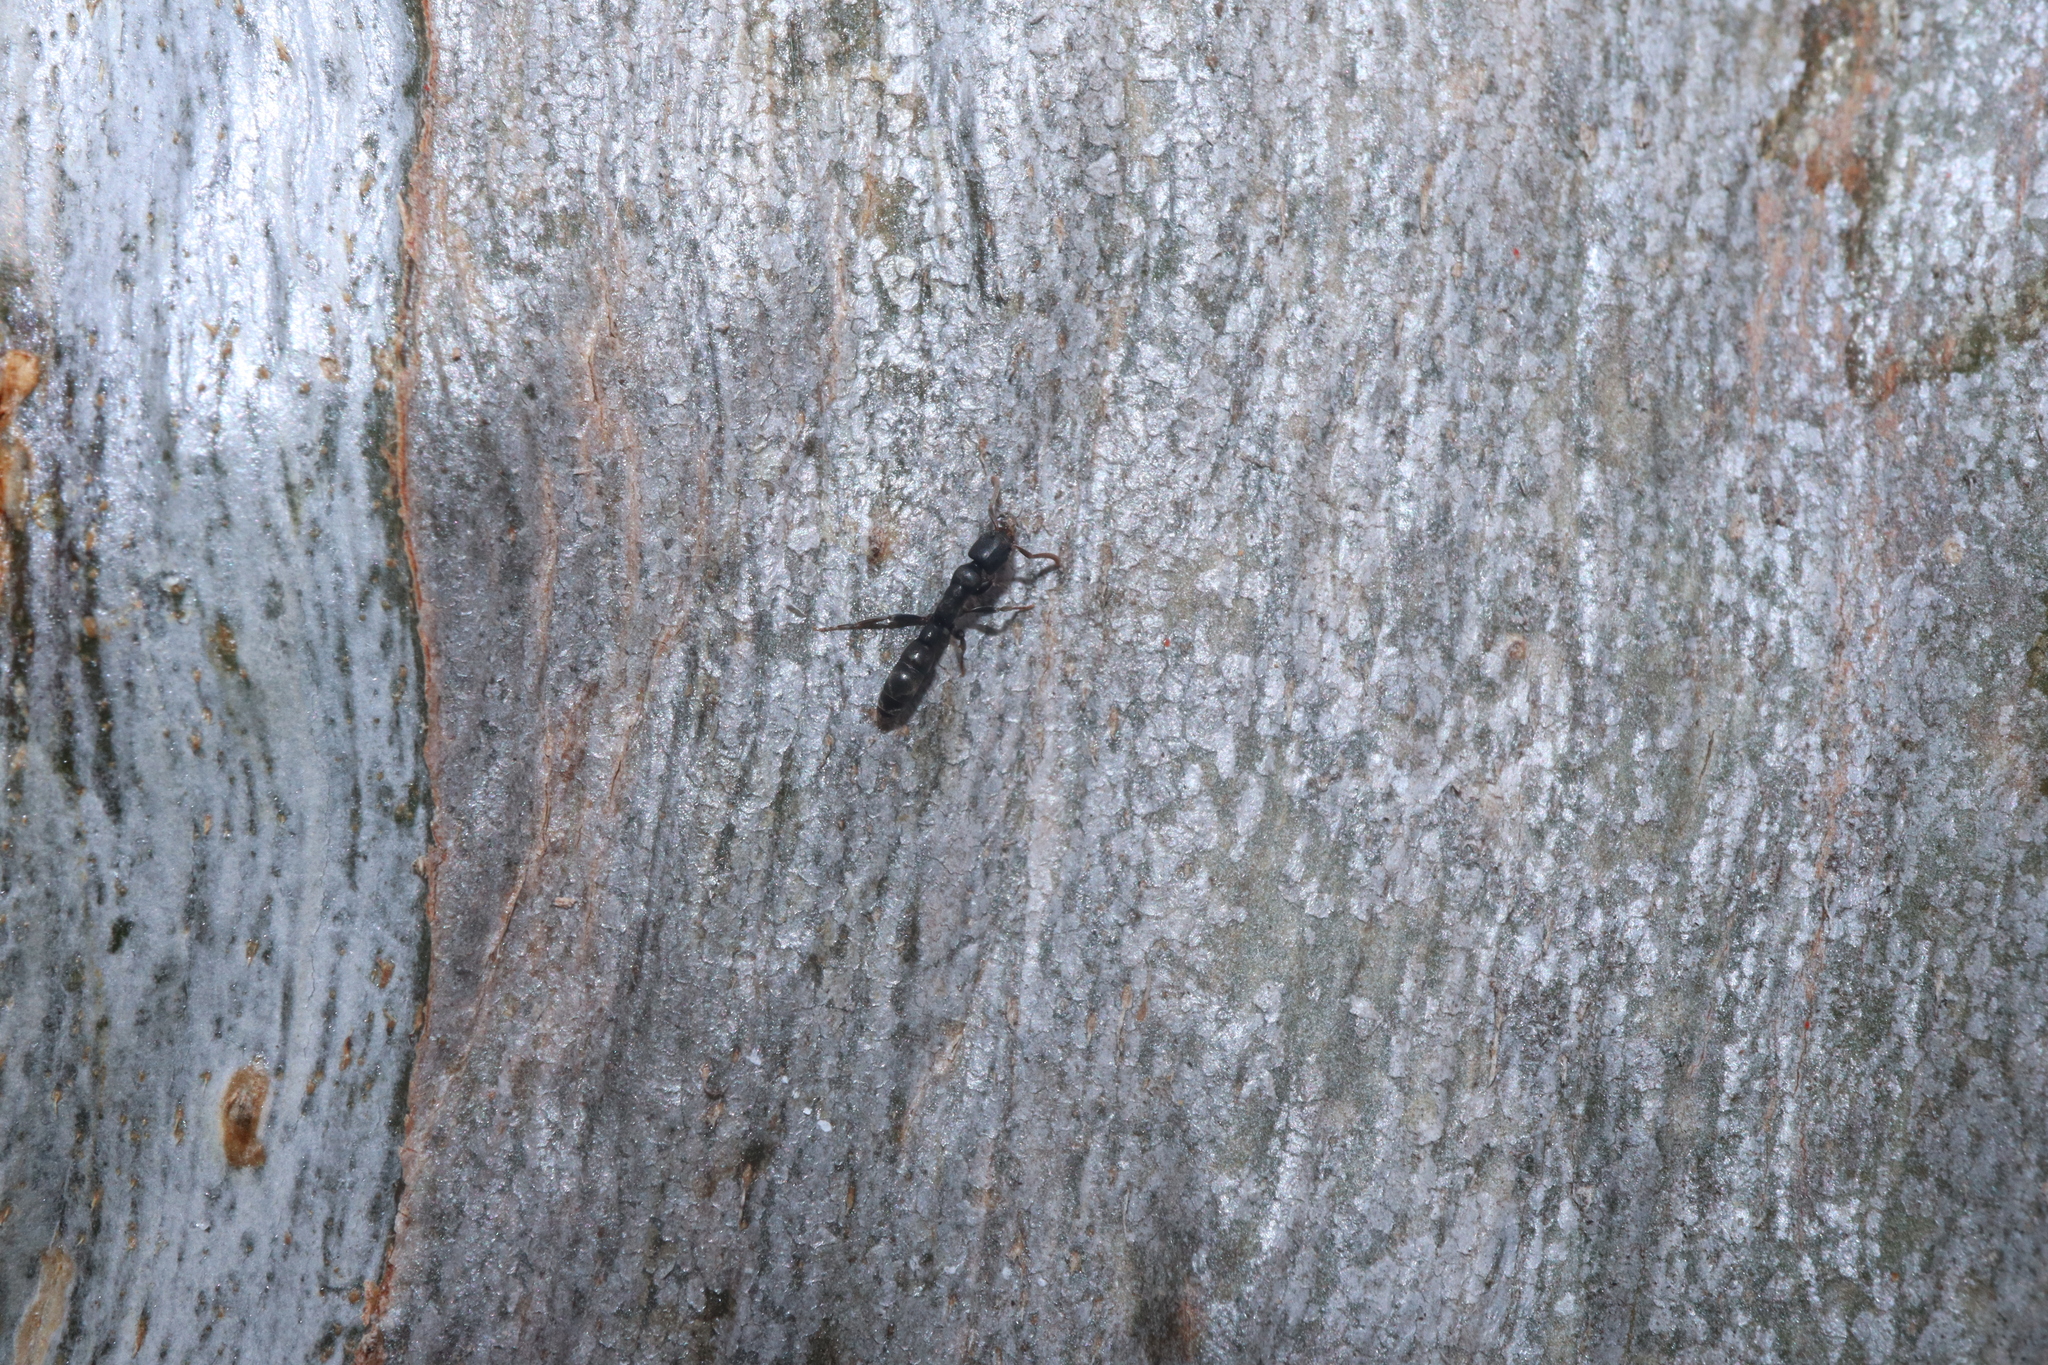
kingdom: Animalia
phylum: Arthropoda
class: Insecta
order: Hymenoptera
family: Formicidae
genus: Platythyrea
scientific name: Platythyrea parallela
